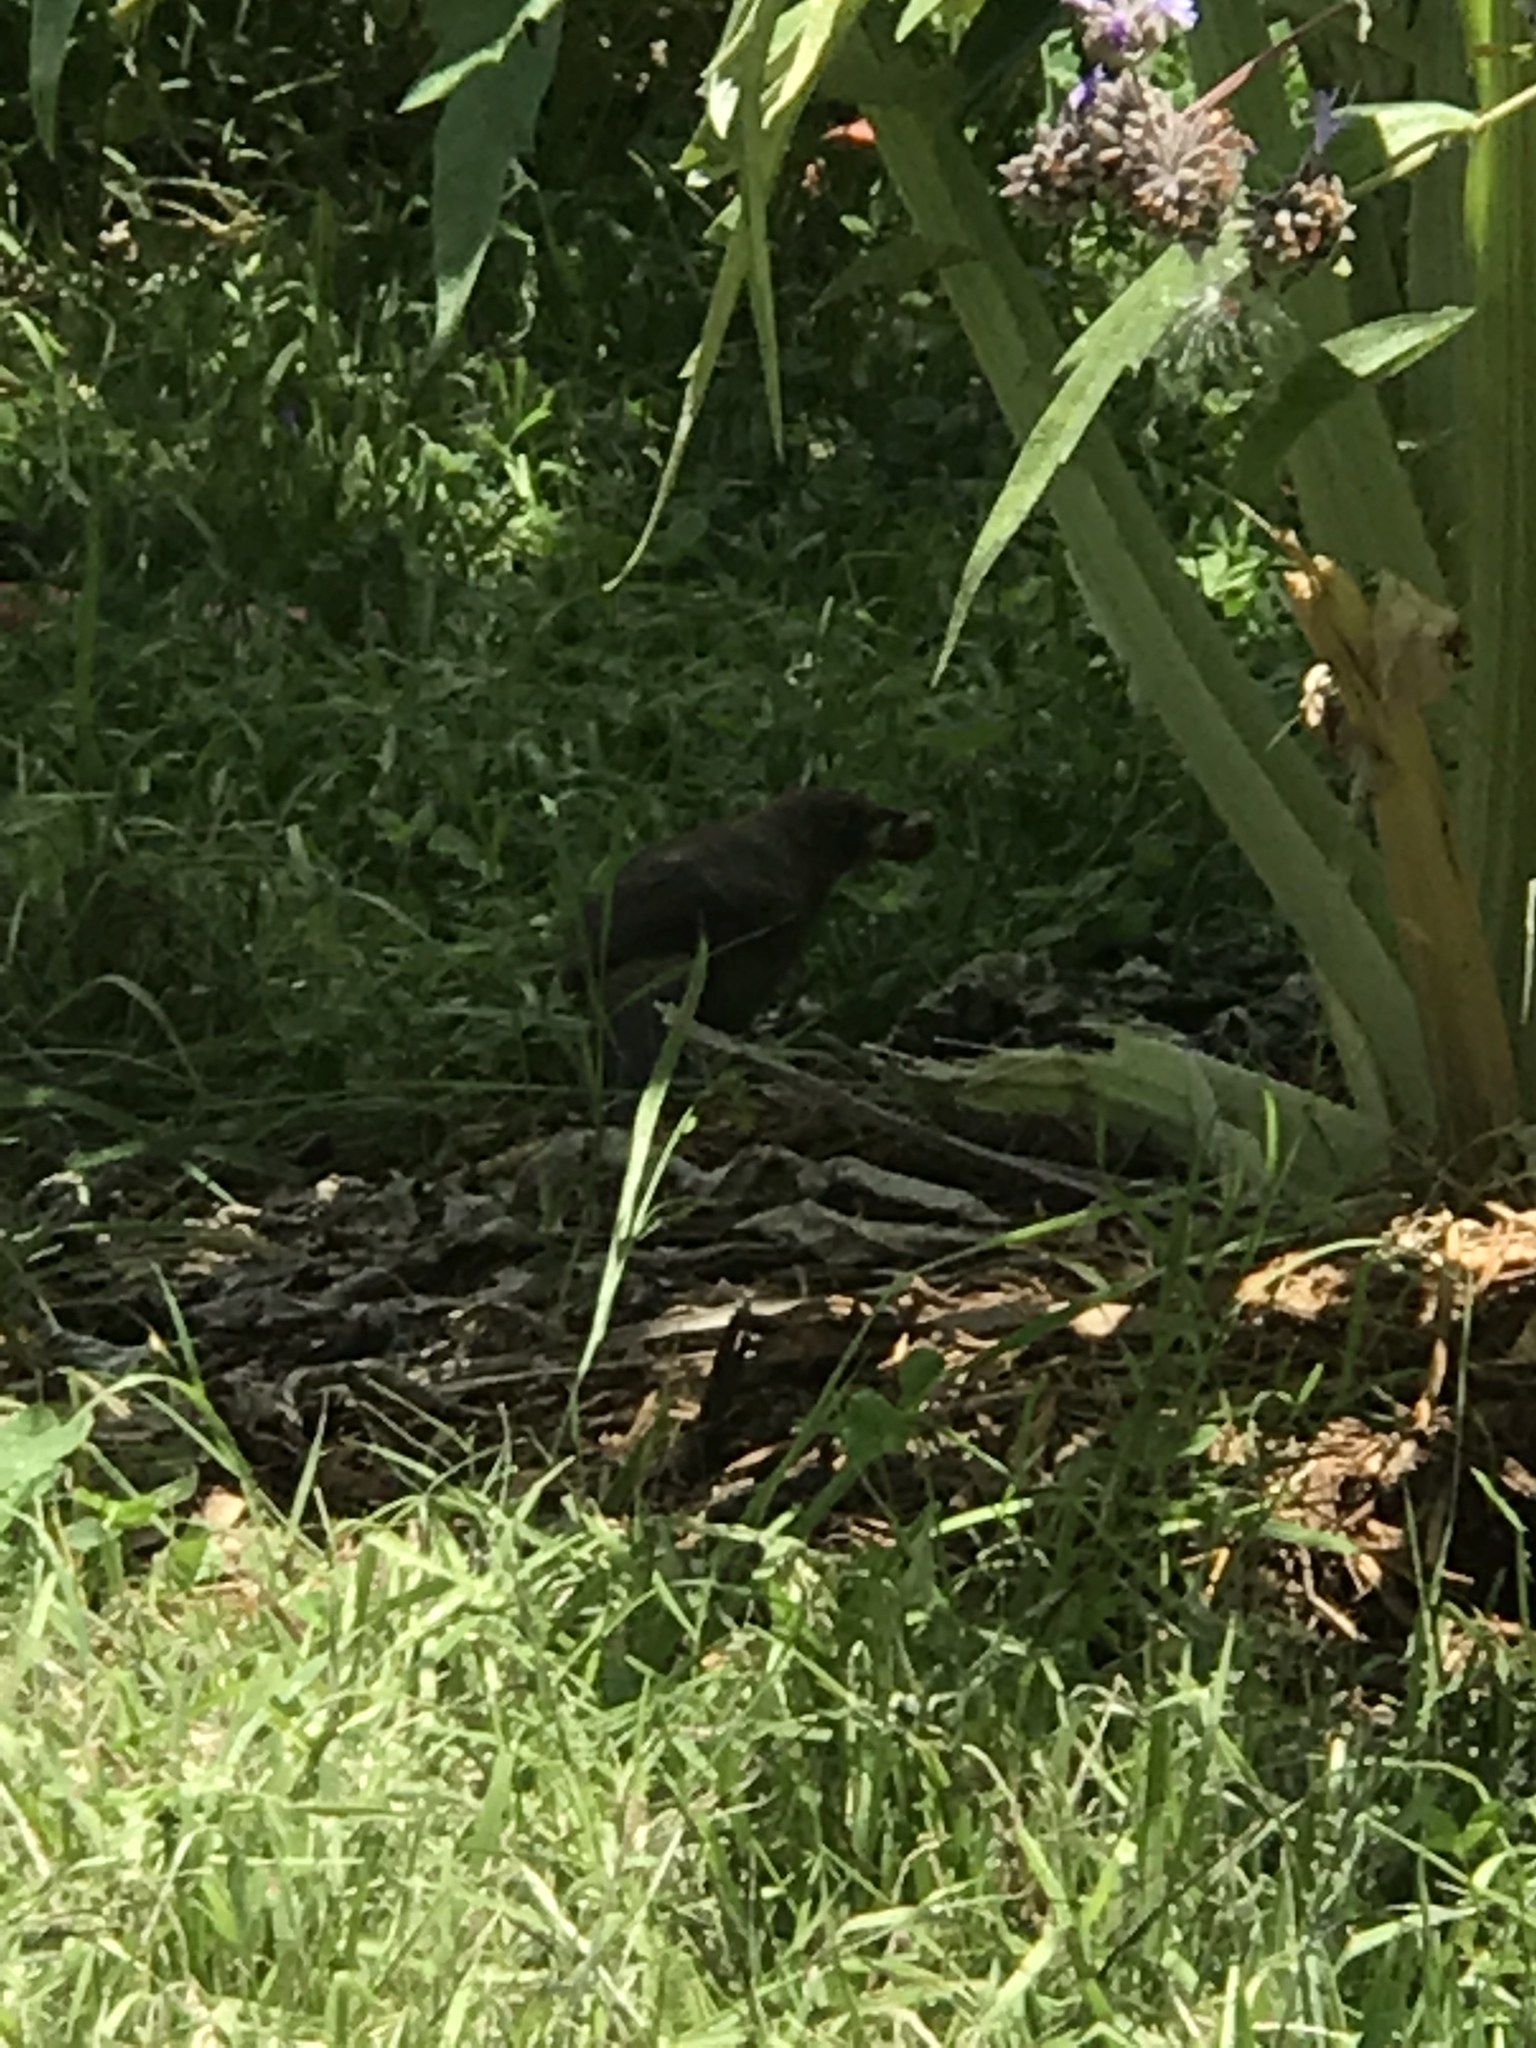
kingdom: Animalia
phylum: Chordata
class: Aves
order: Passeriformes
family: Passerellidae
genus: Melozone
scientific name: Melozone crissalis
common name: California towhee
